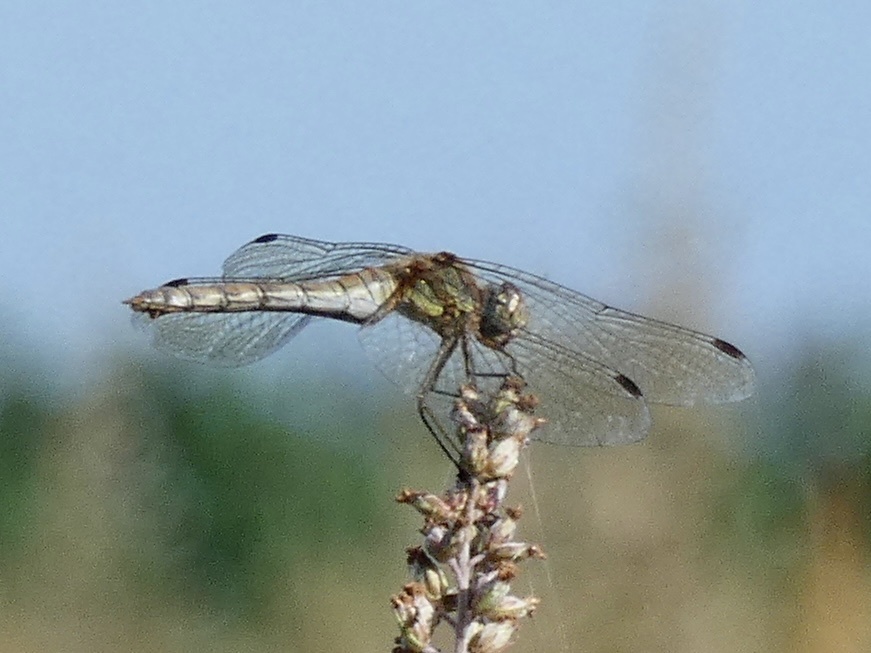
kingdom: Animalia
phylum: Arthropoda
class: Insecta
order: Odonata
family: Libellulidae
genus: Sympetrum
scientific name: Sympetrum striolatum
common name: Common darter
